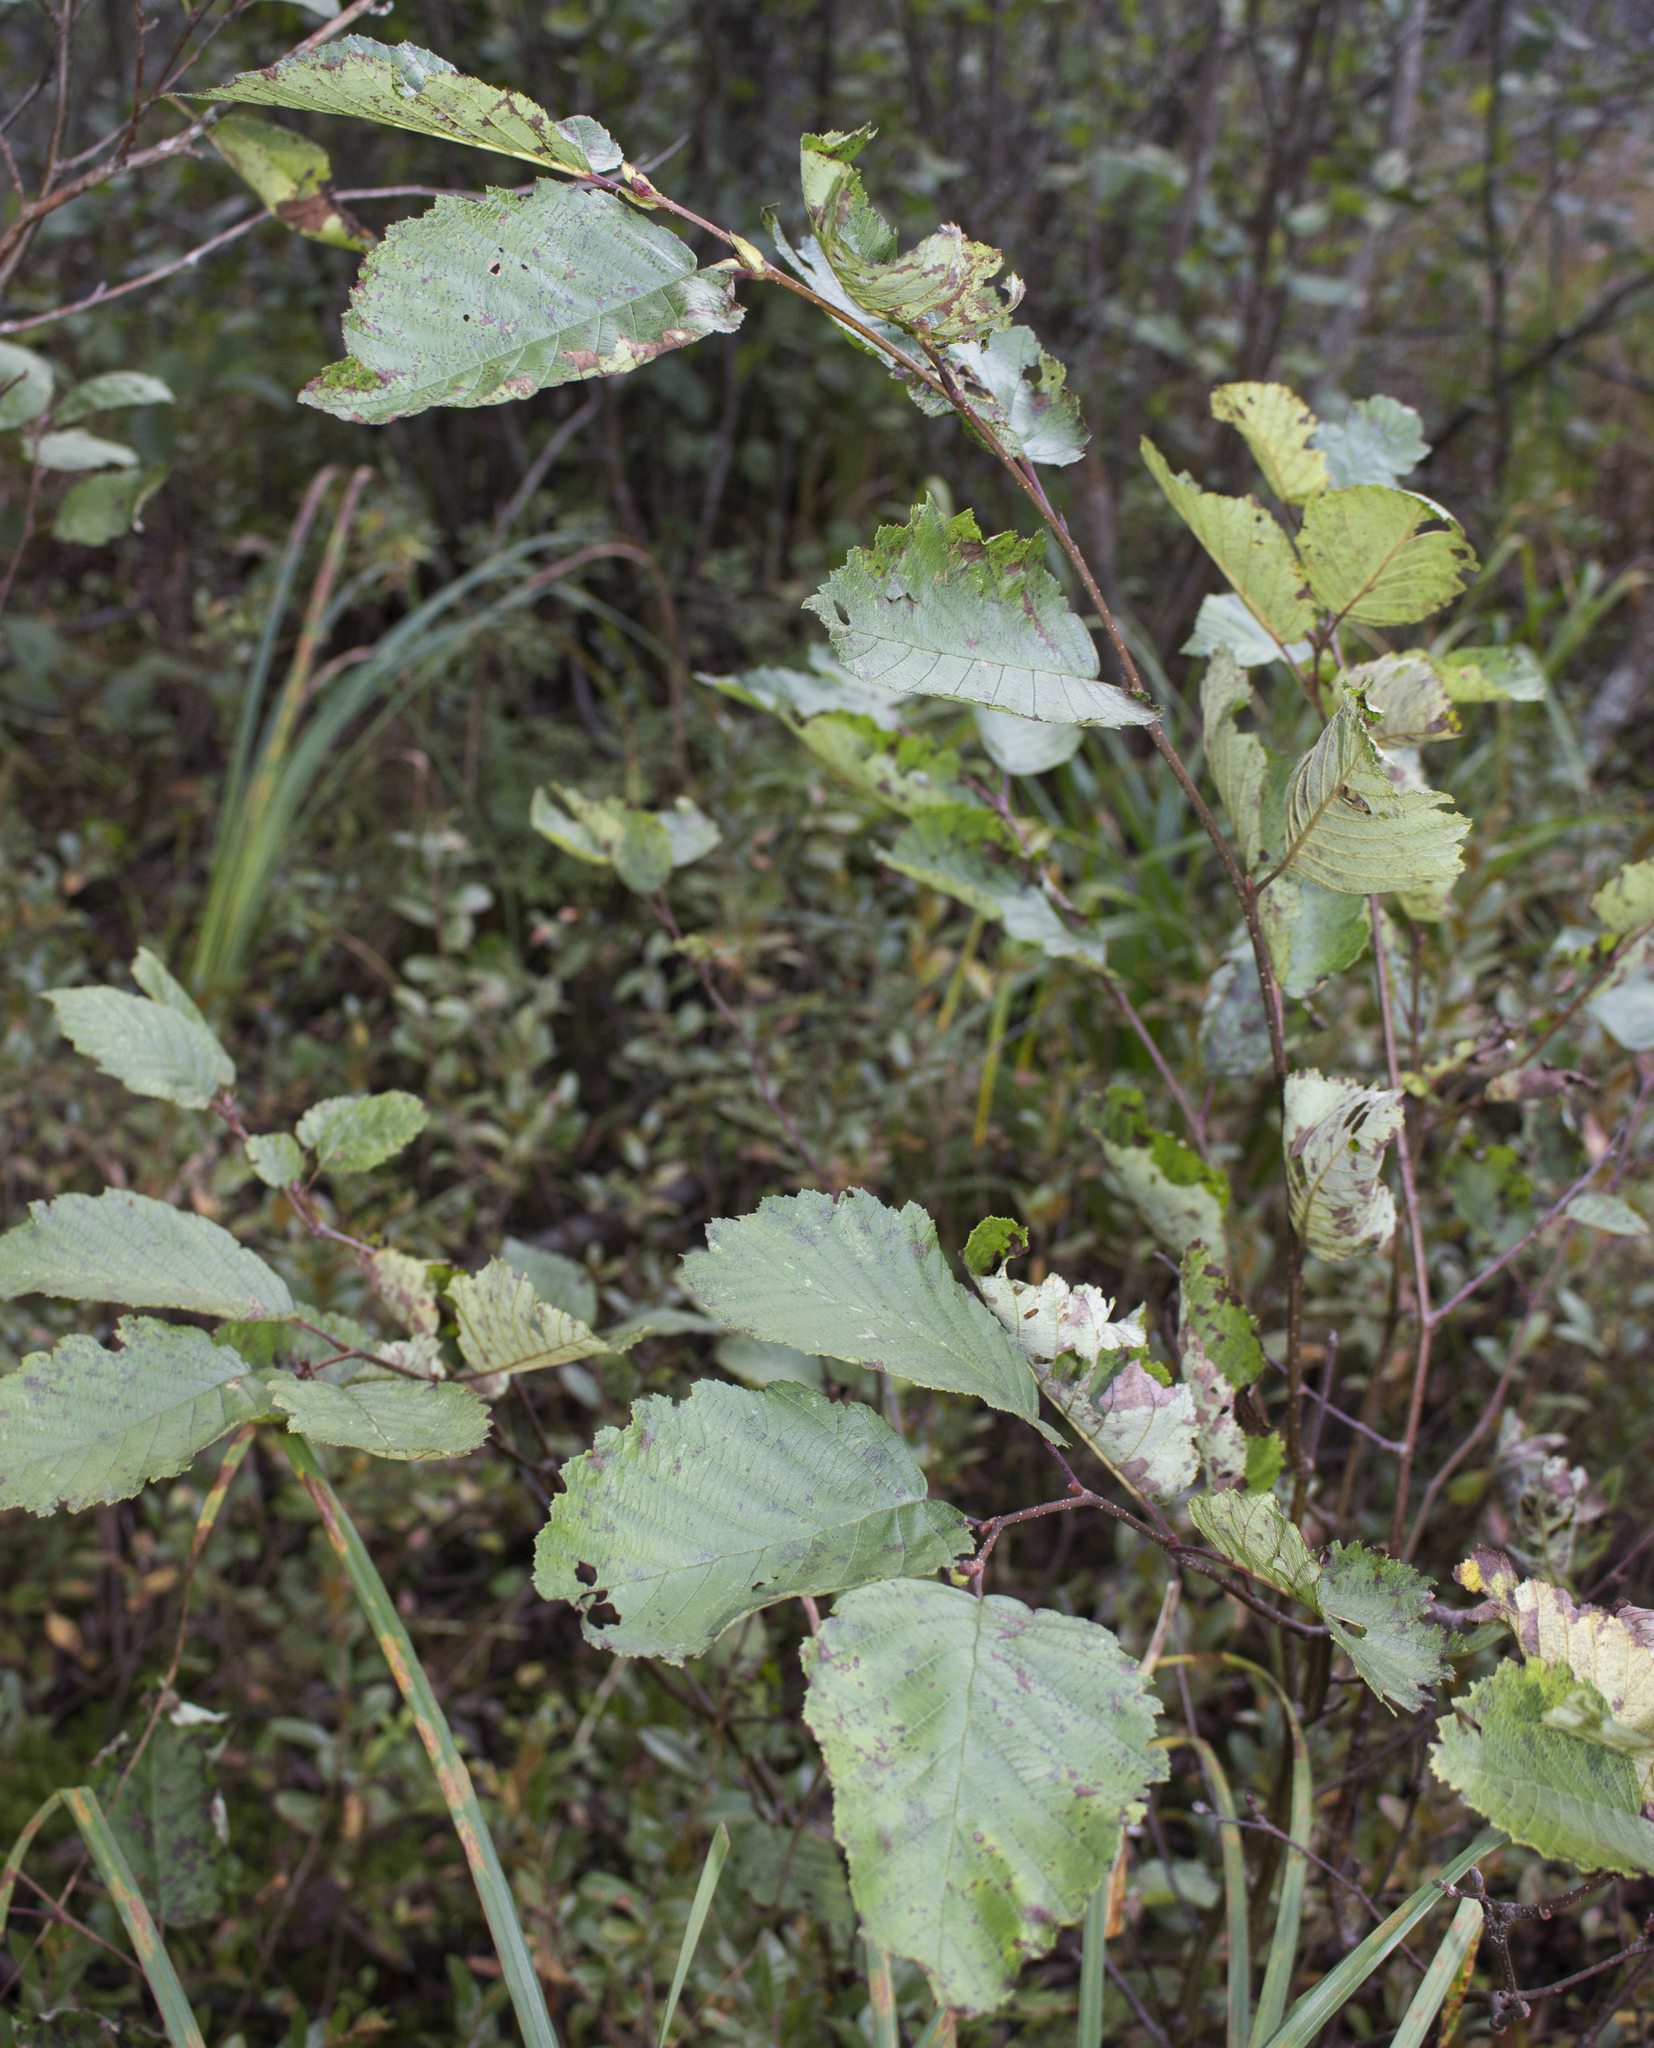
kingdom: Plantae
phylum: Tracheophyta
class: Magnoliopsida
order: Fagales
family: Betulaceae
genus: Alnus
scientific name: Alnus incana
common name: Grey alder
